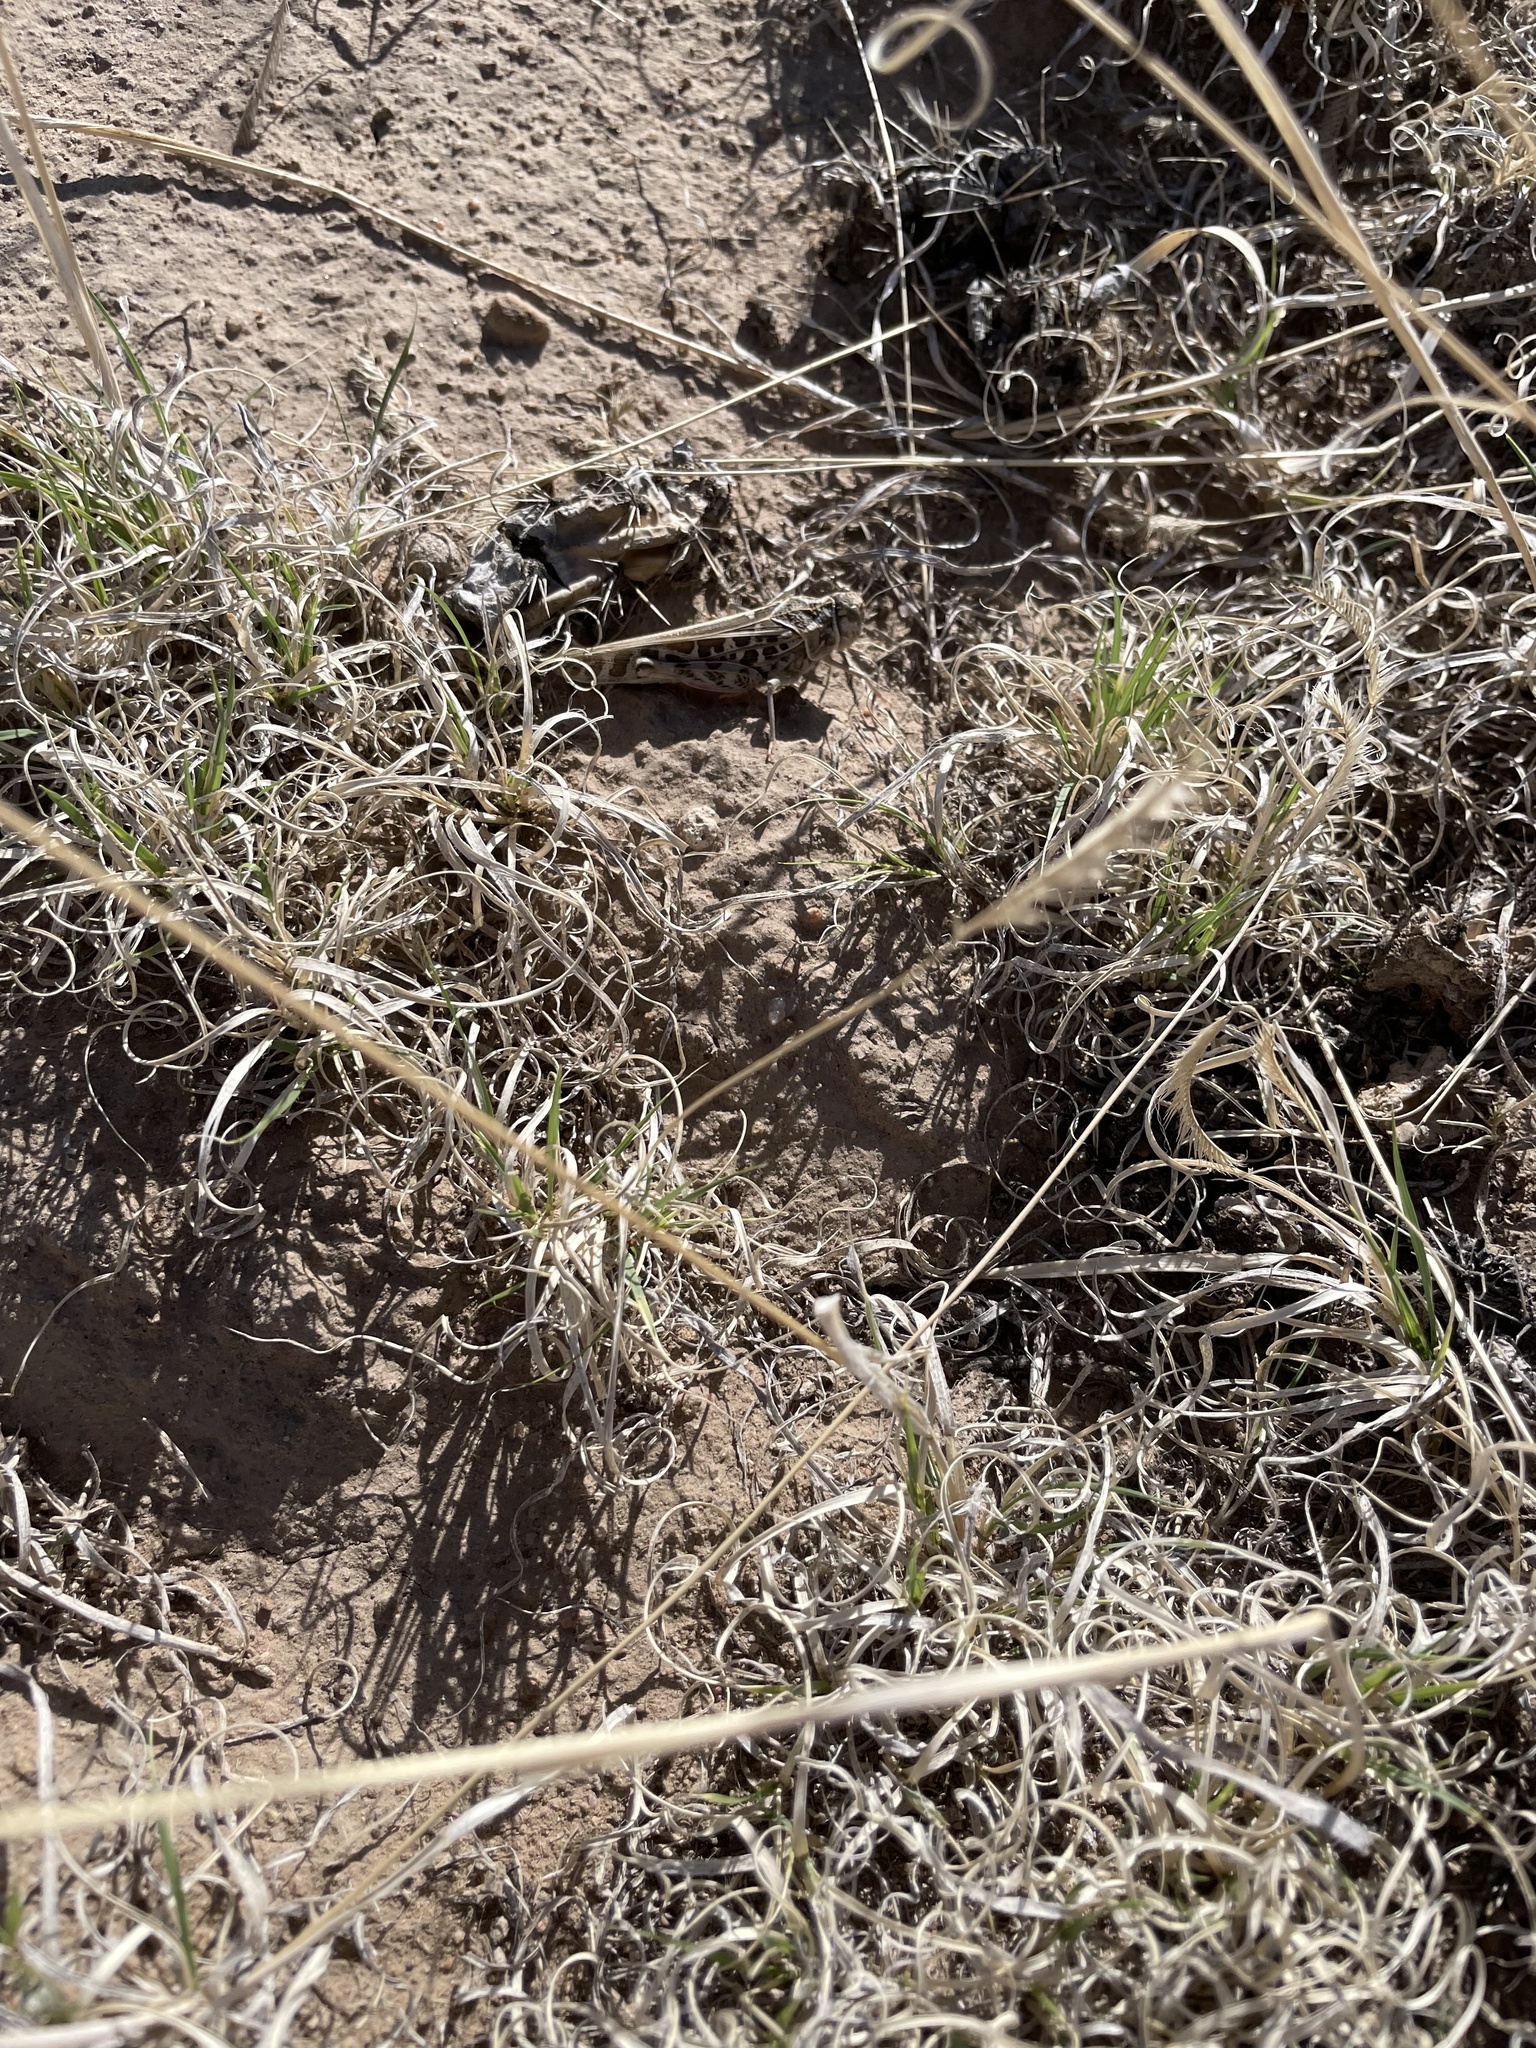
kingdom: Animalia
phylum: Arthropoda
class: Insecta
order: Orthoptera
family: Acrididae
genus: Xanthippus
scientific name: Xanthippus corallipes
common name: Redshanked grasshopper
